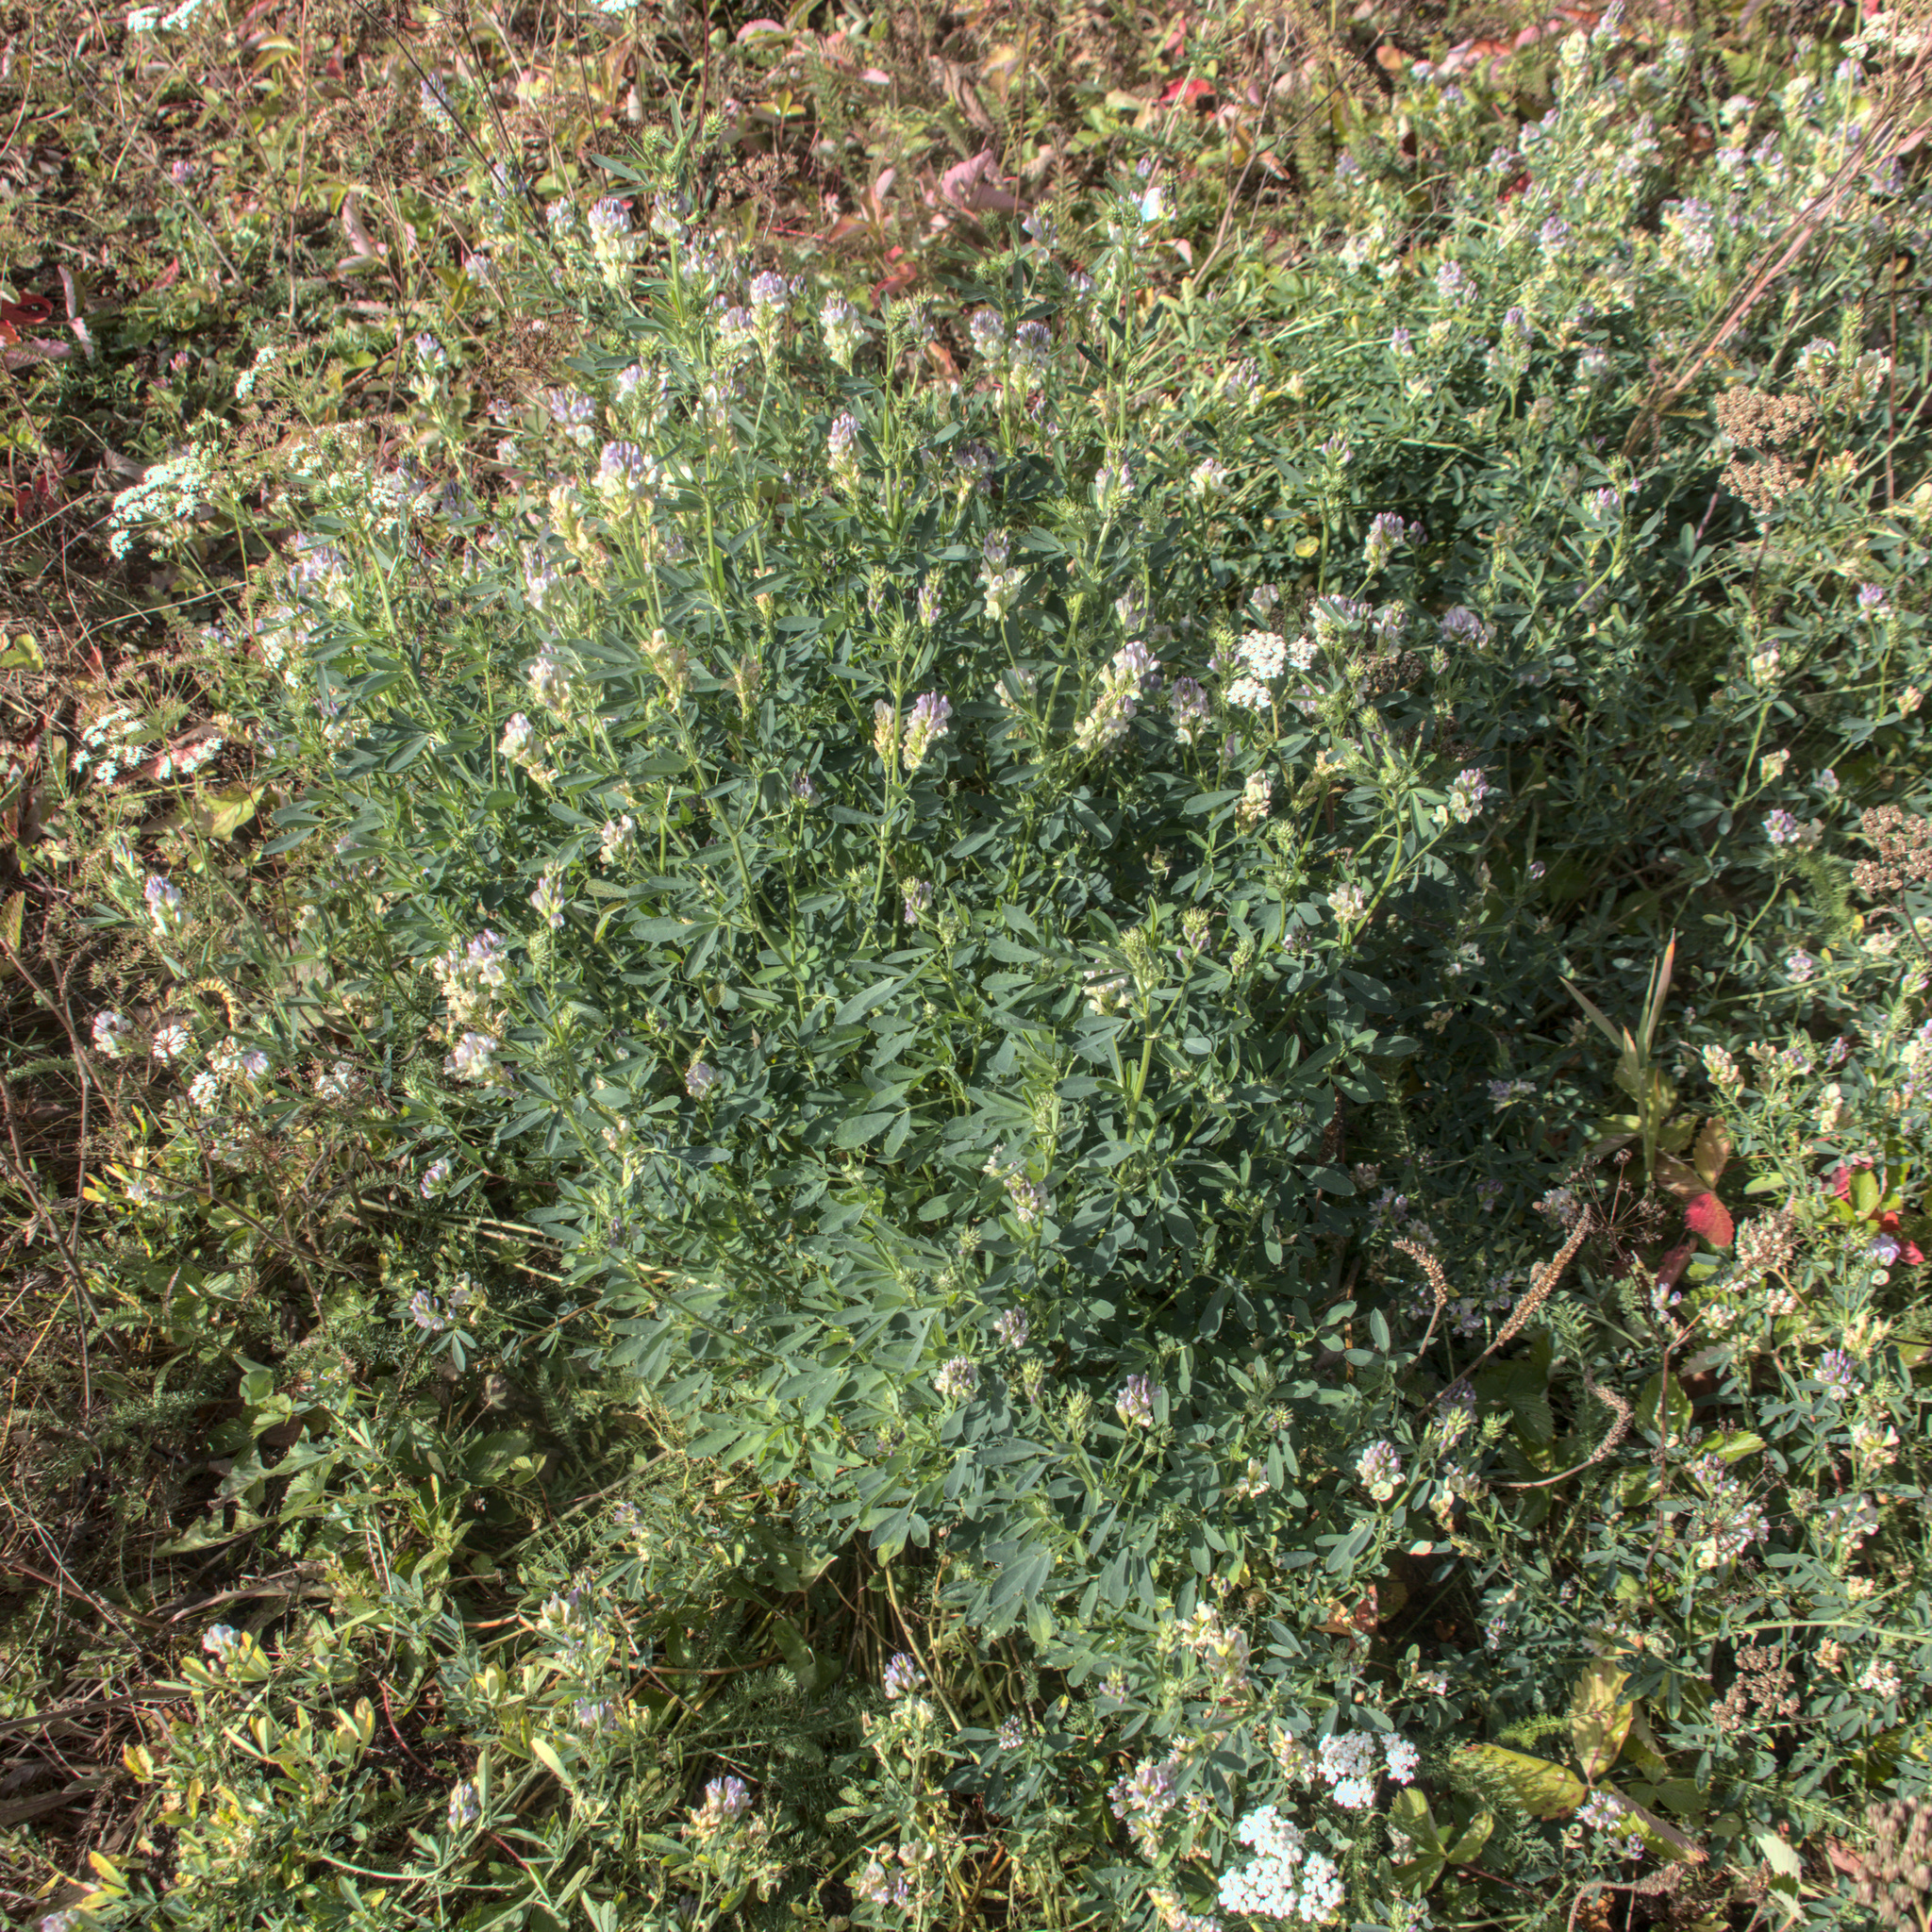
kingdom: Plantae
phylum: Tracheophyta
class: Magnoliopsida
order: Fabales
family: Fabaceae
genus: Medicago
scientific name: Medicago varia
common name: Sand lucerne
